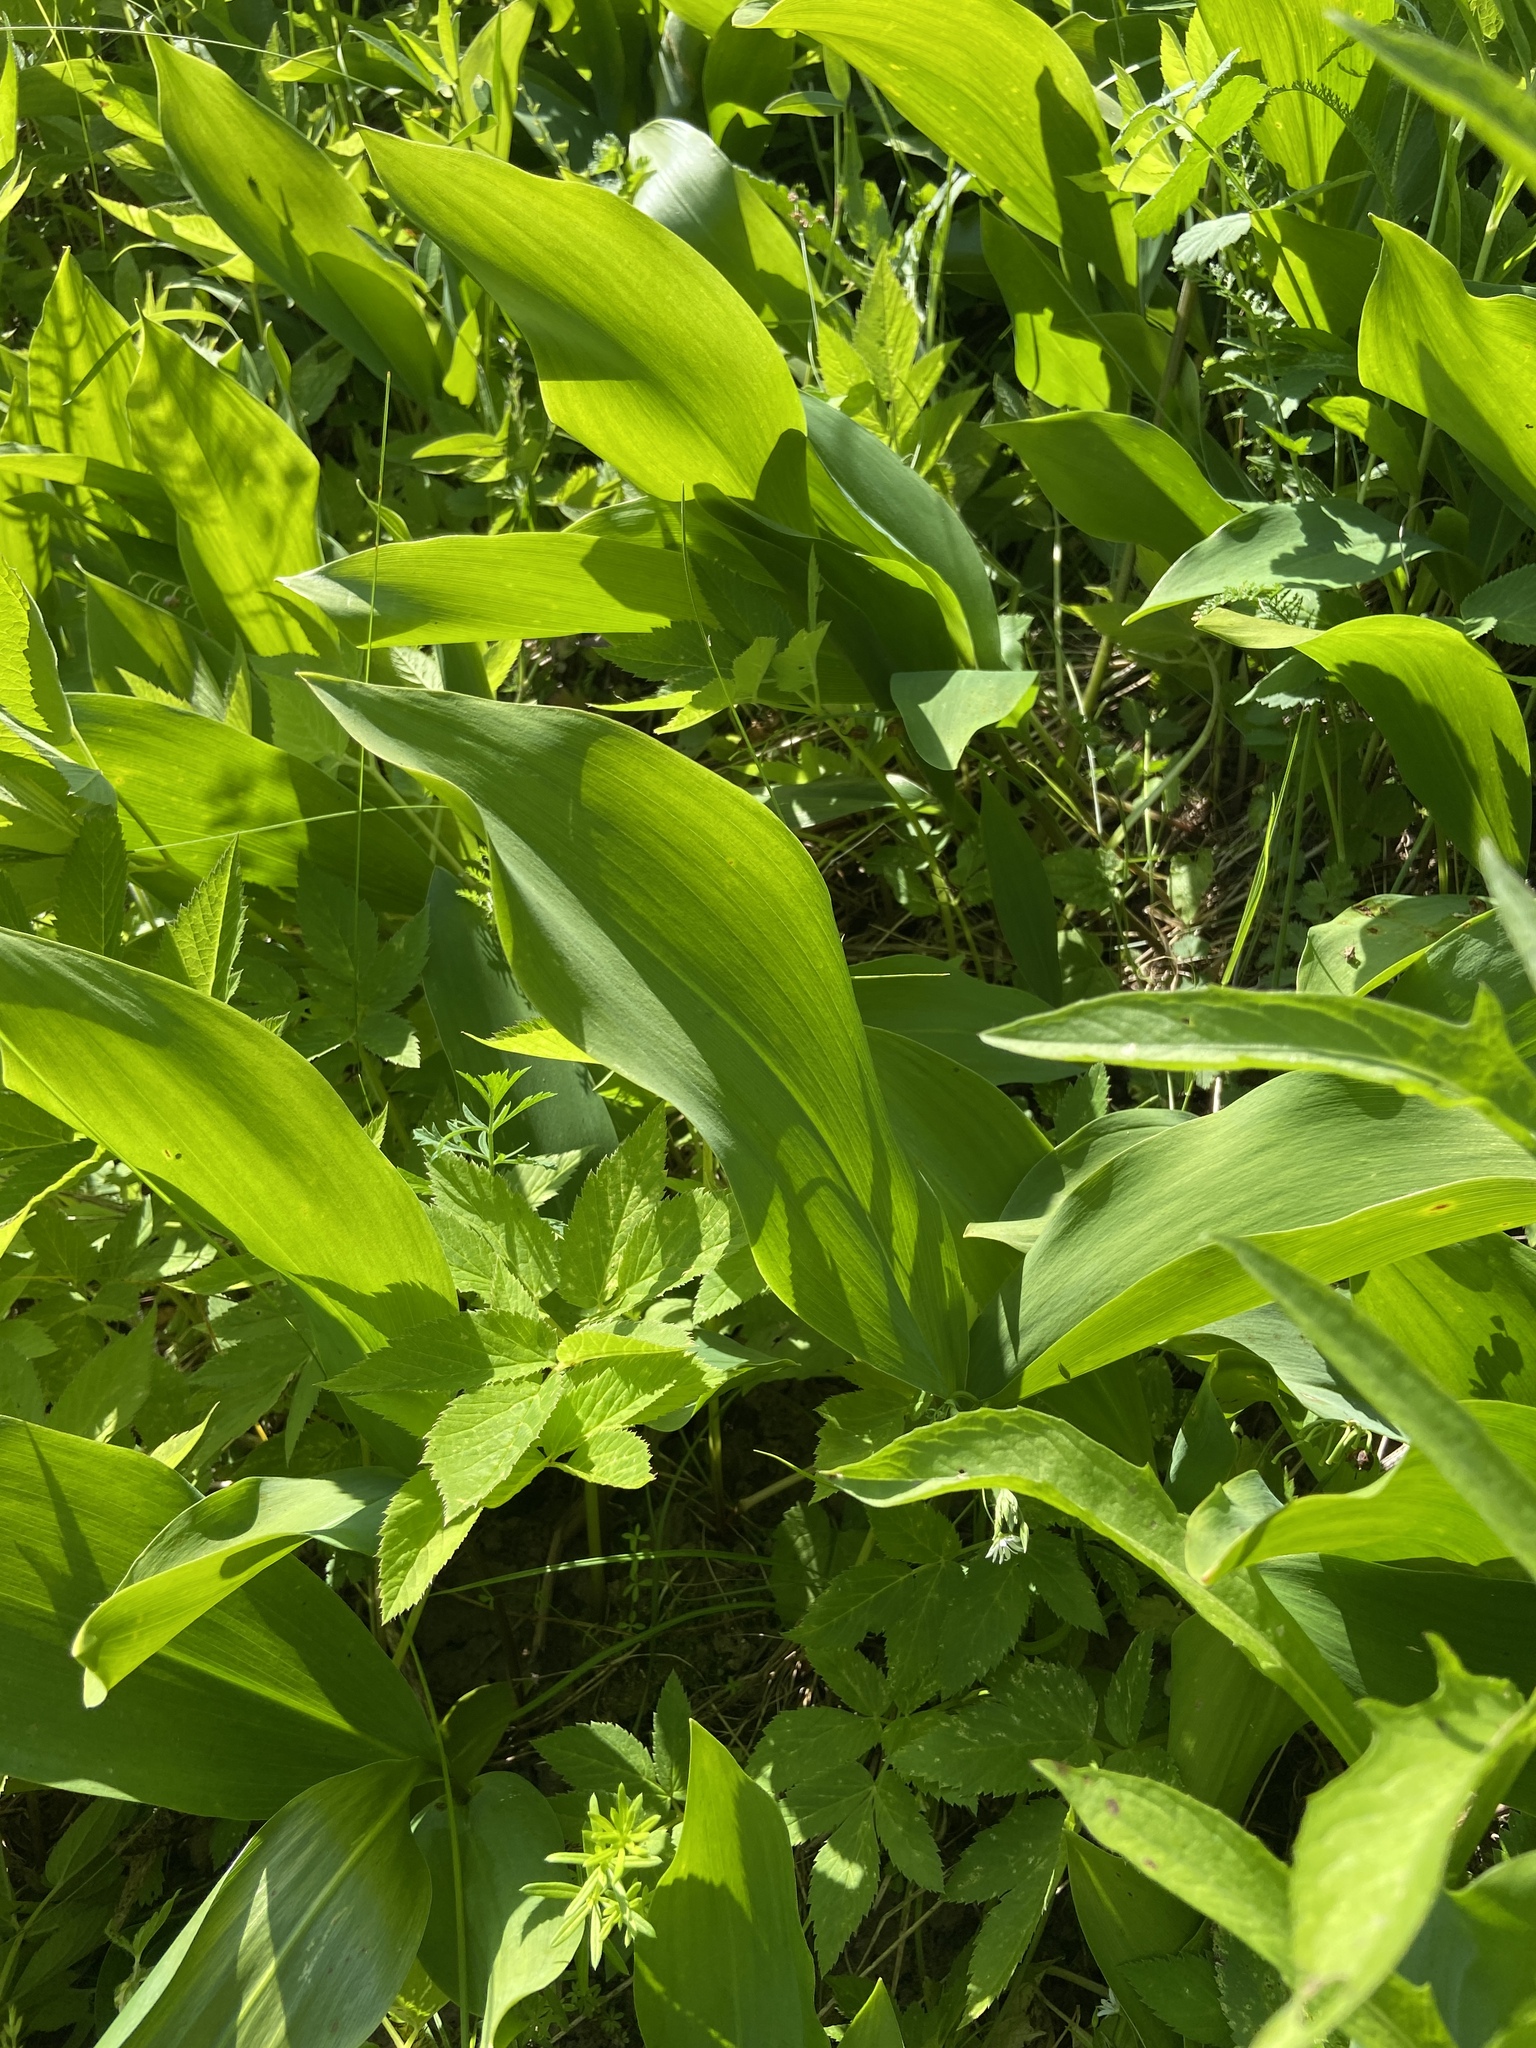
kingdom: Plantae
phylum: Tracheophyta
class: Liliopsida
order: Asparagales
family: Asparagaceae
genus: Convallaria
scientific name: Convallaria majalis
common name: Lily-of-the-valley
